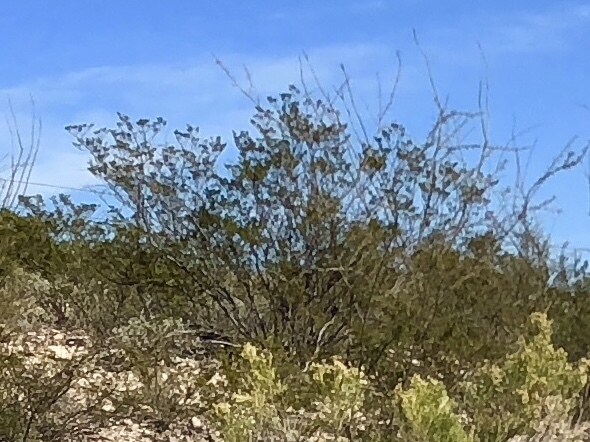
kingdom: Plantae
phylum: Tracheophyta
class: Magnoliopsida
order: Zygophyllales
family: Zygophyllaceae
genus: Larrea
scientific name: Larrea tridentata
